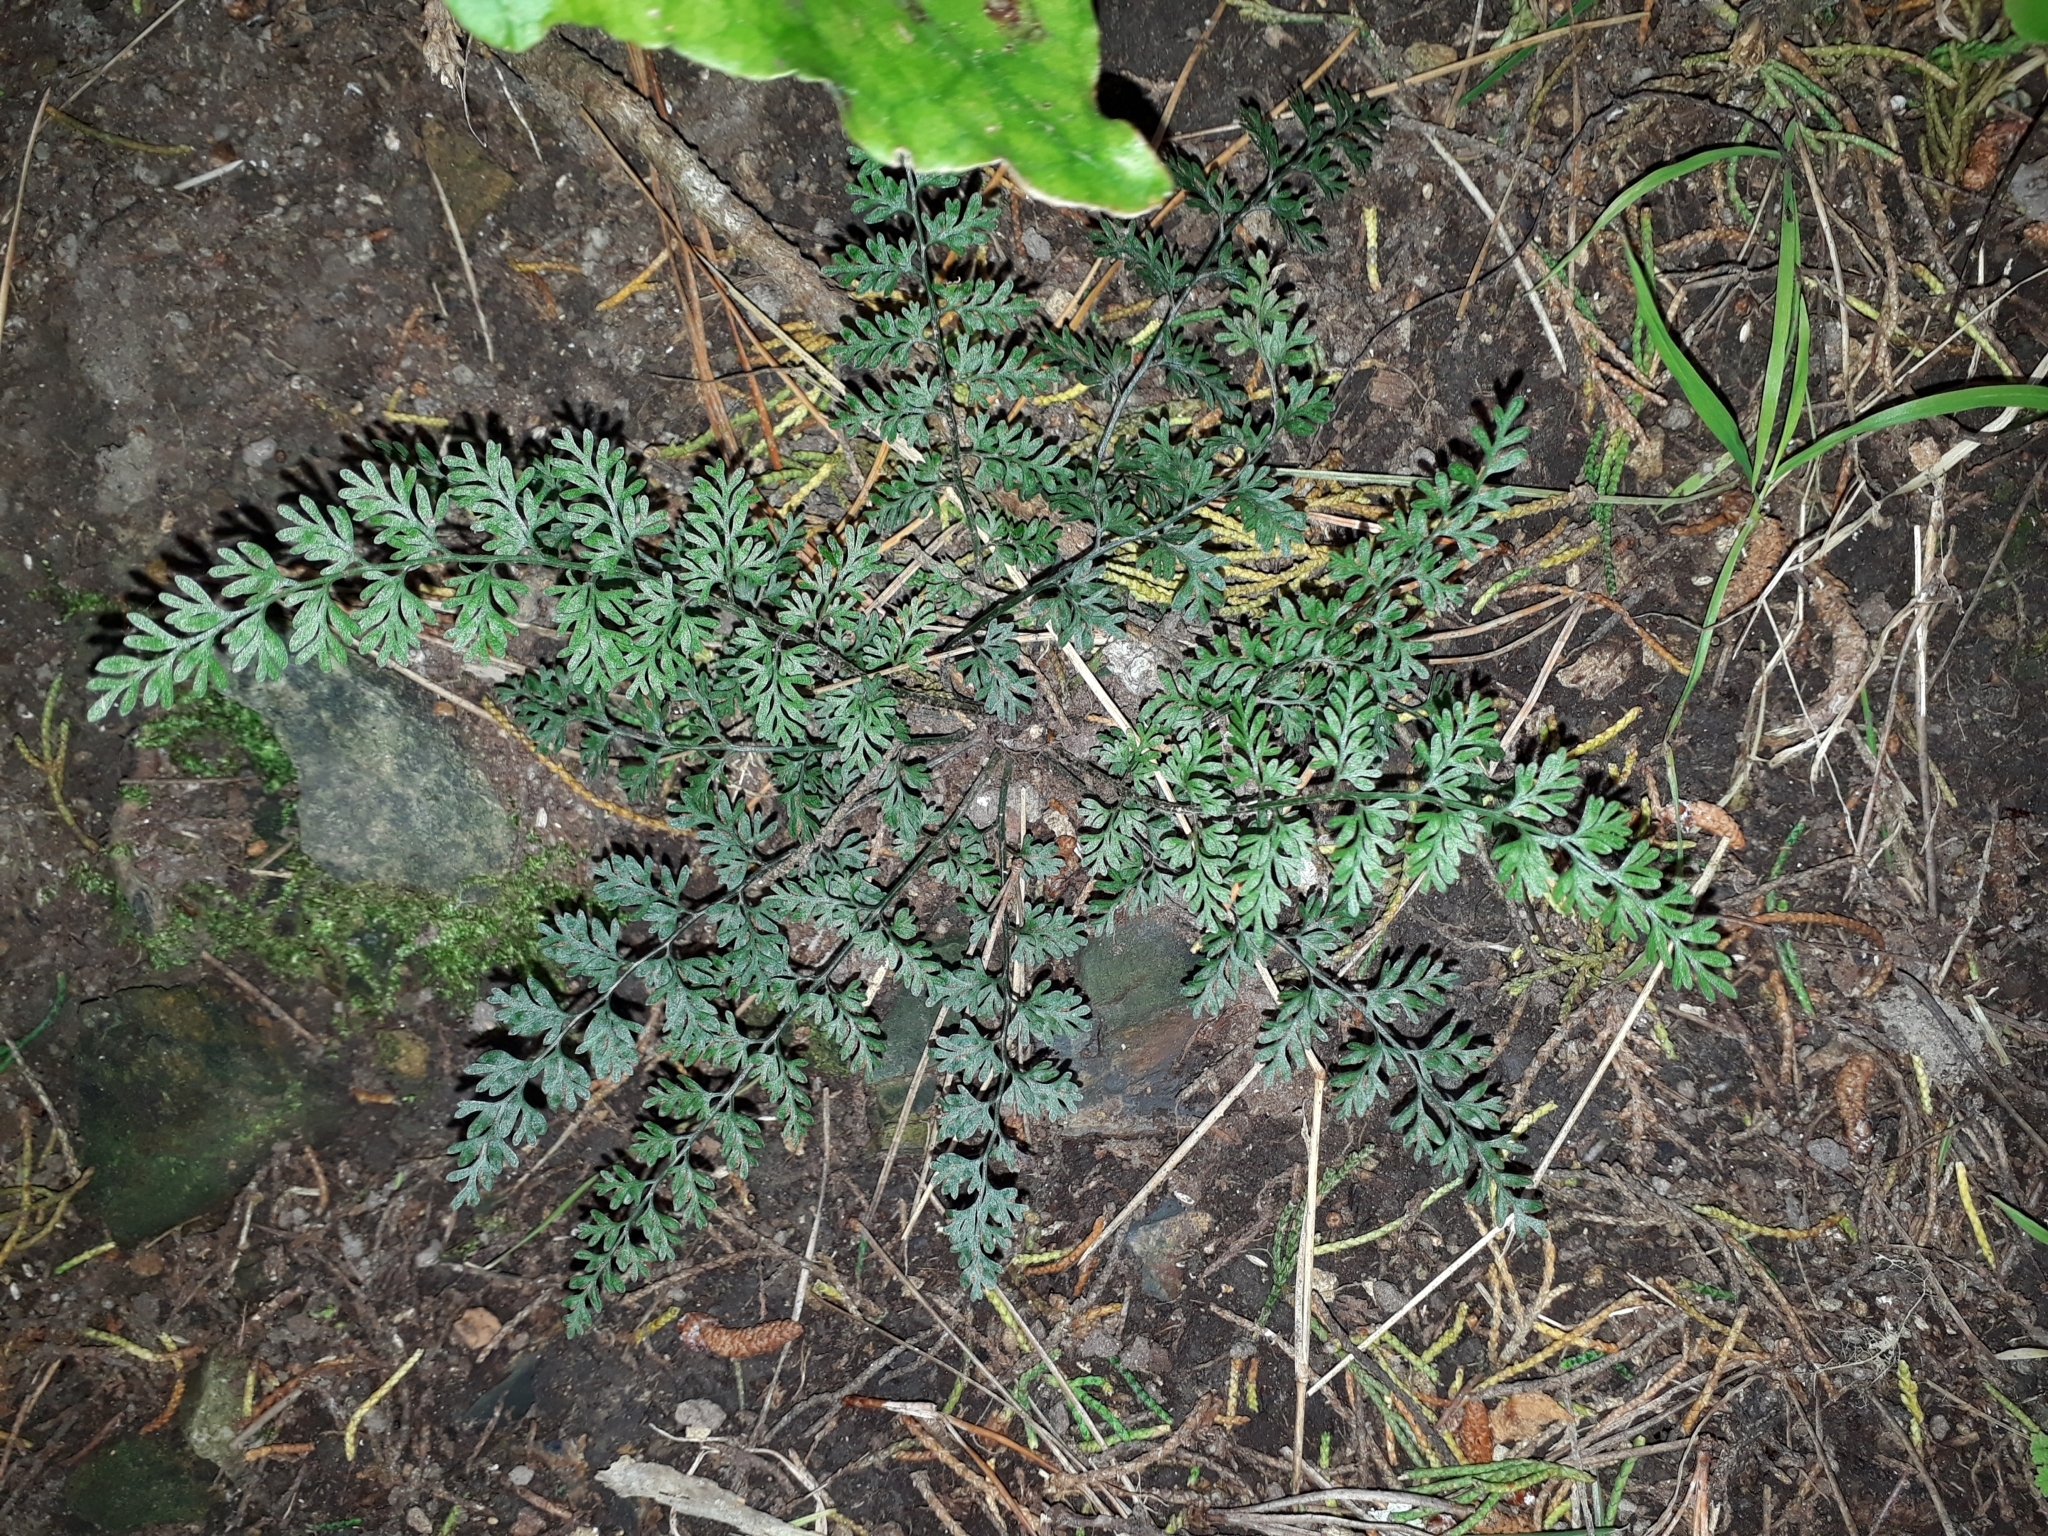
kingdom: Plantae
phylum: Tracheophyta
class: Polypodiopsida
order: Polypodiales
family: Aspleniaceae
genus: Asplenium
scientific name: Asplenium hookerianum
